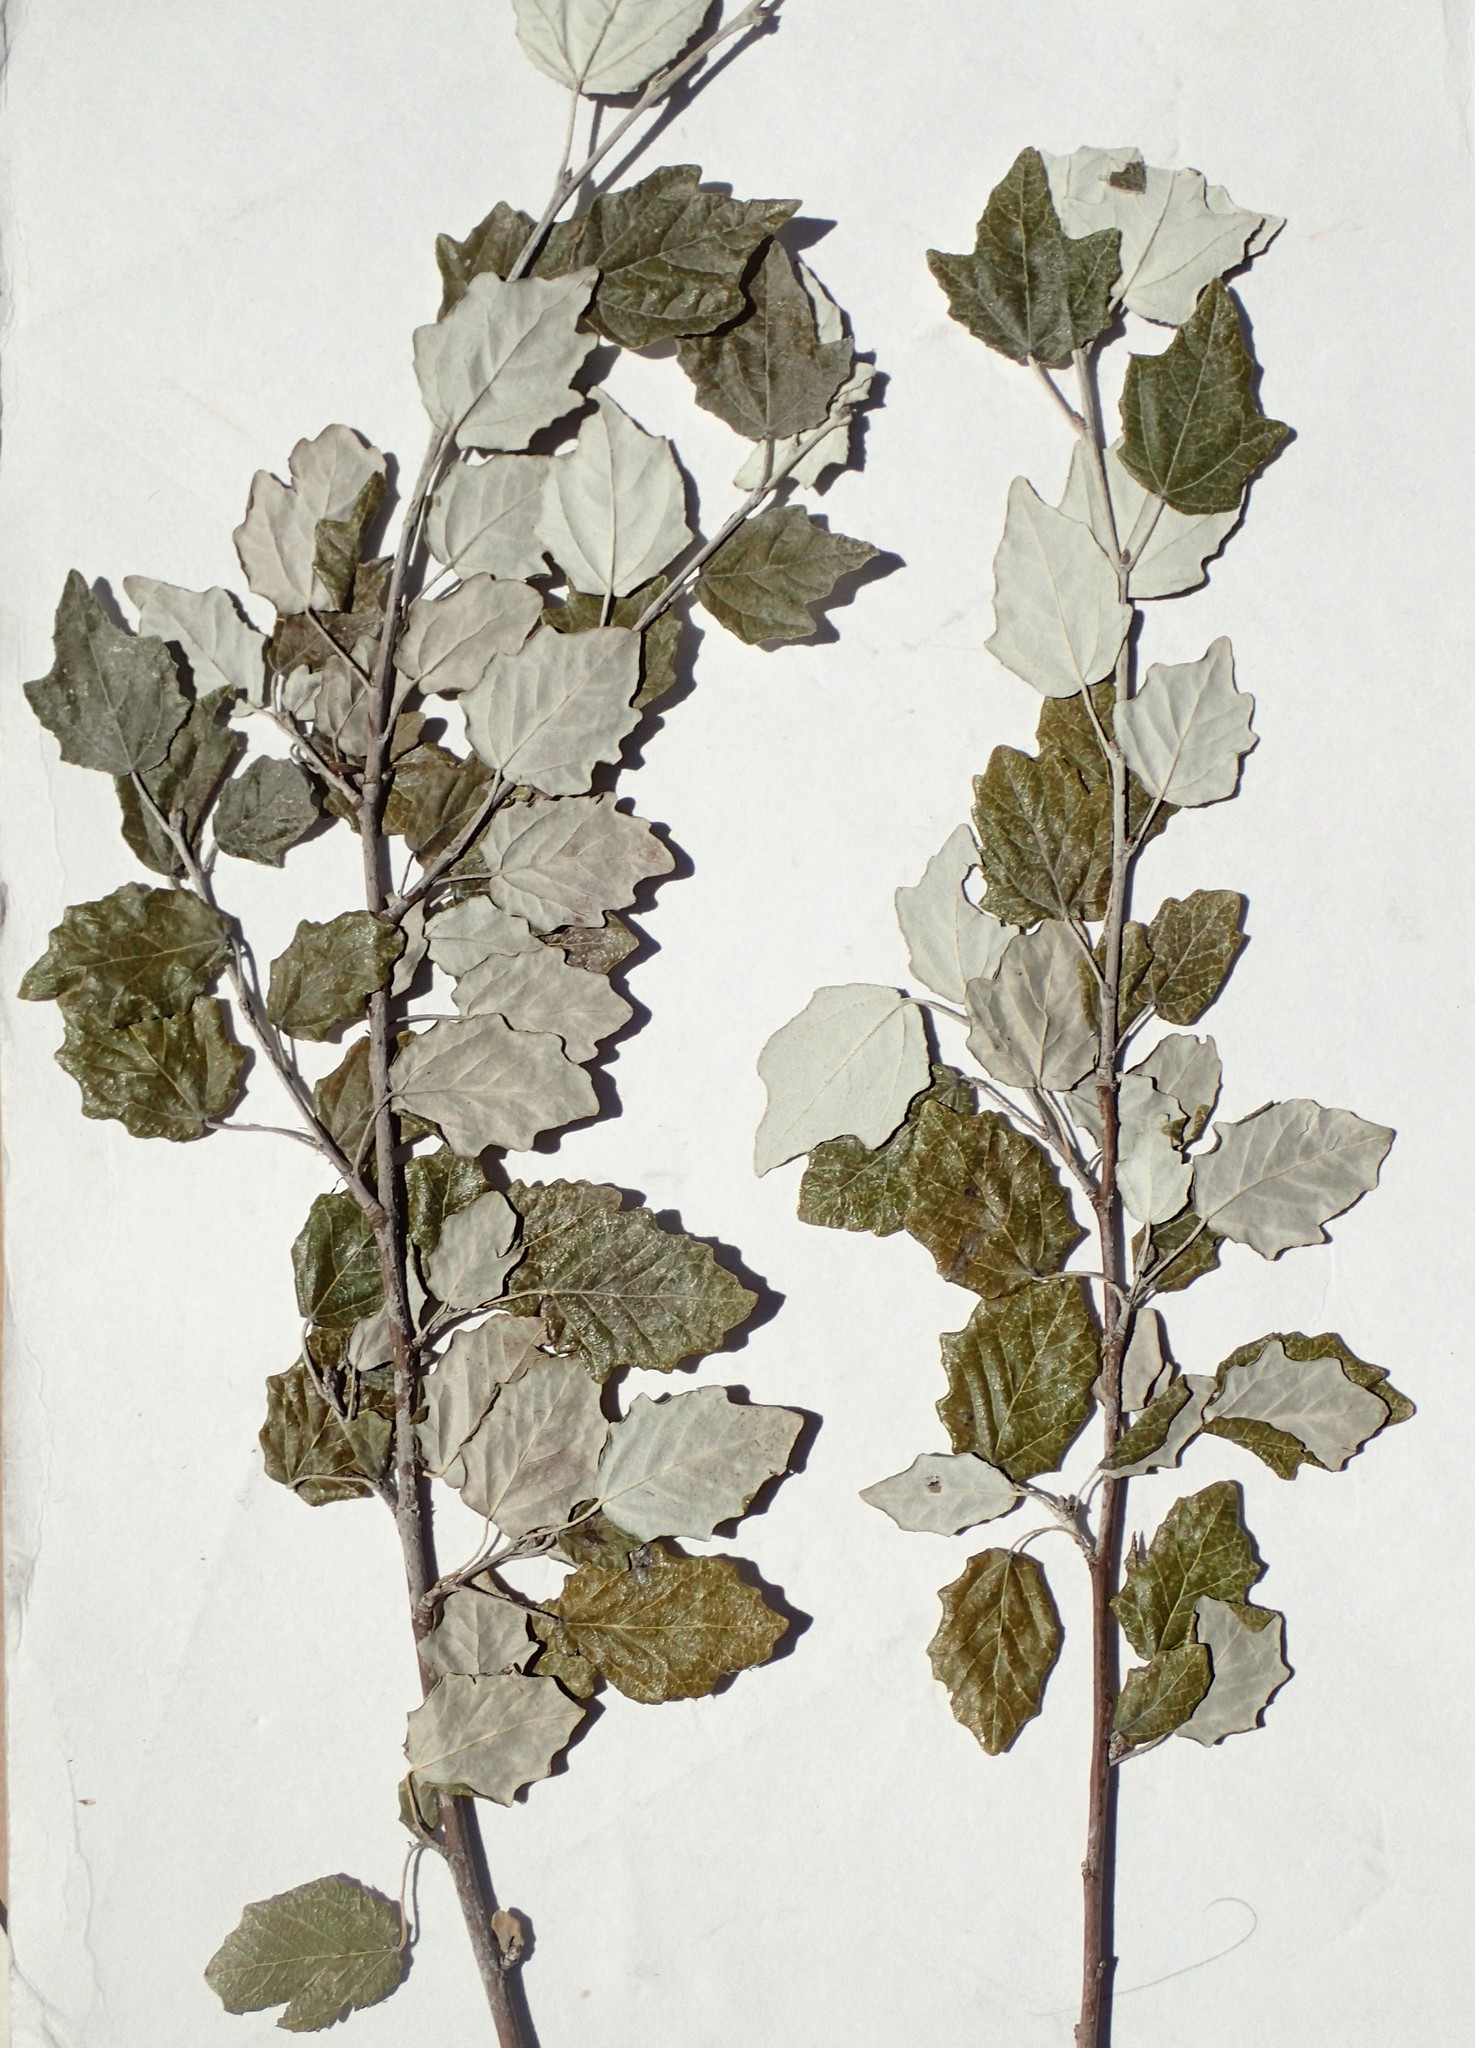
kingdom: Plantae
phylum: Tracheophyta
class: Magnoliopsida
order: Malpighiales
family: Salicaceae
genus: Populus
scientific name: Populus alba
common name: White poplar
